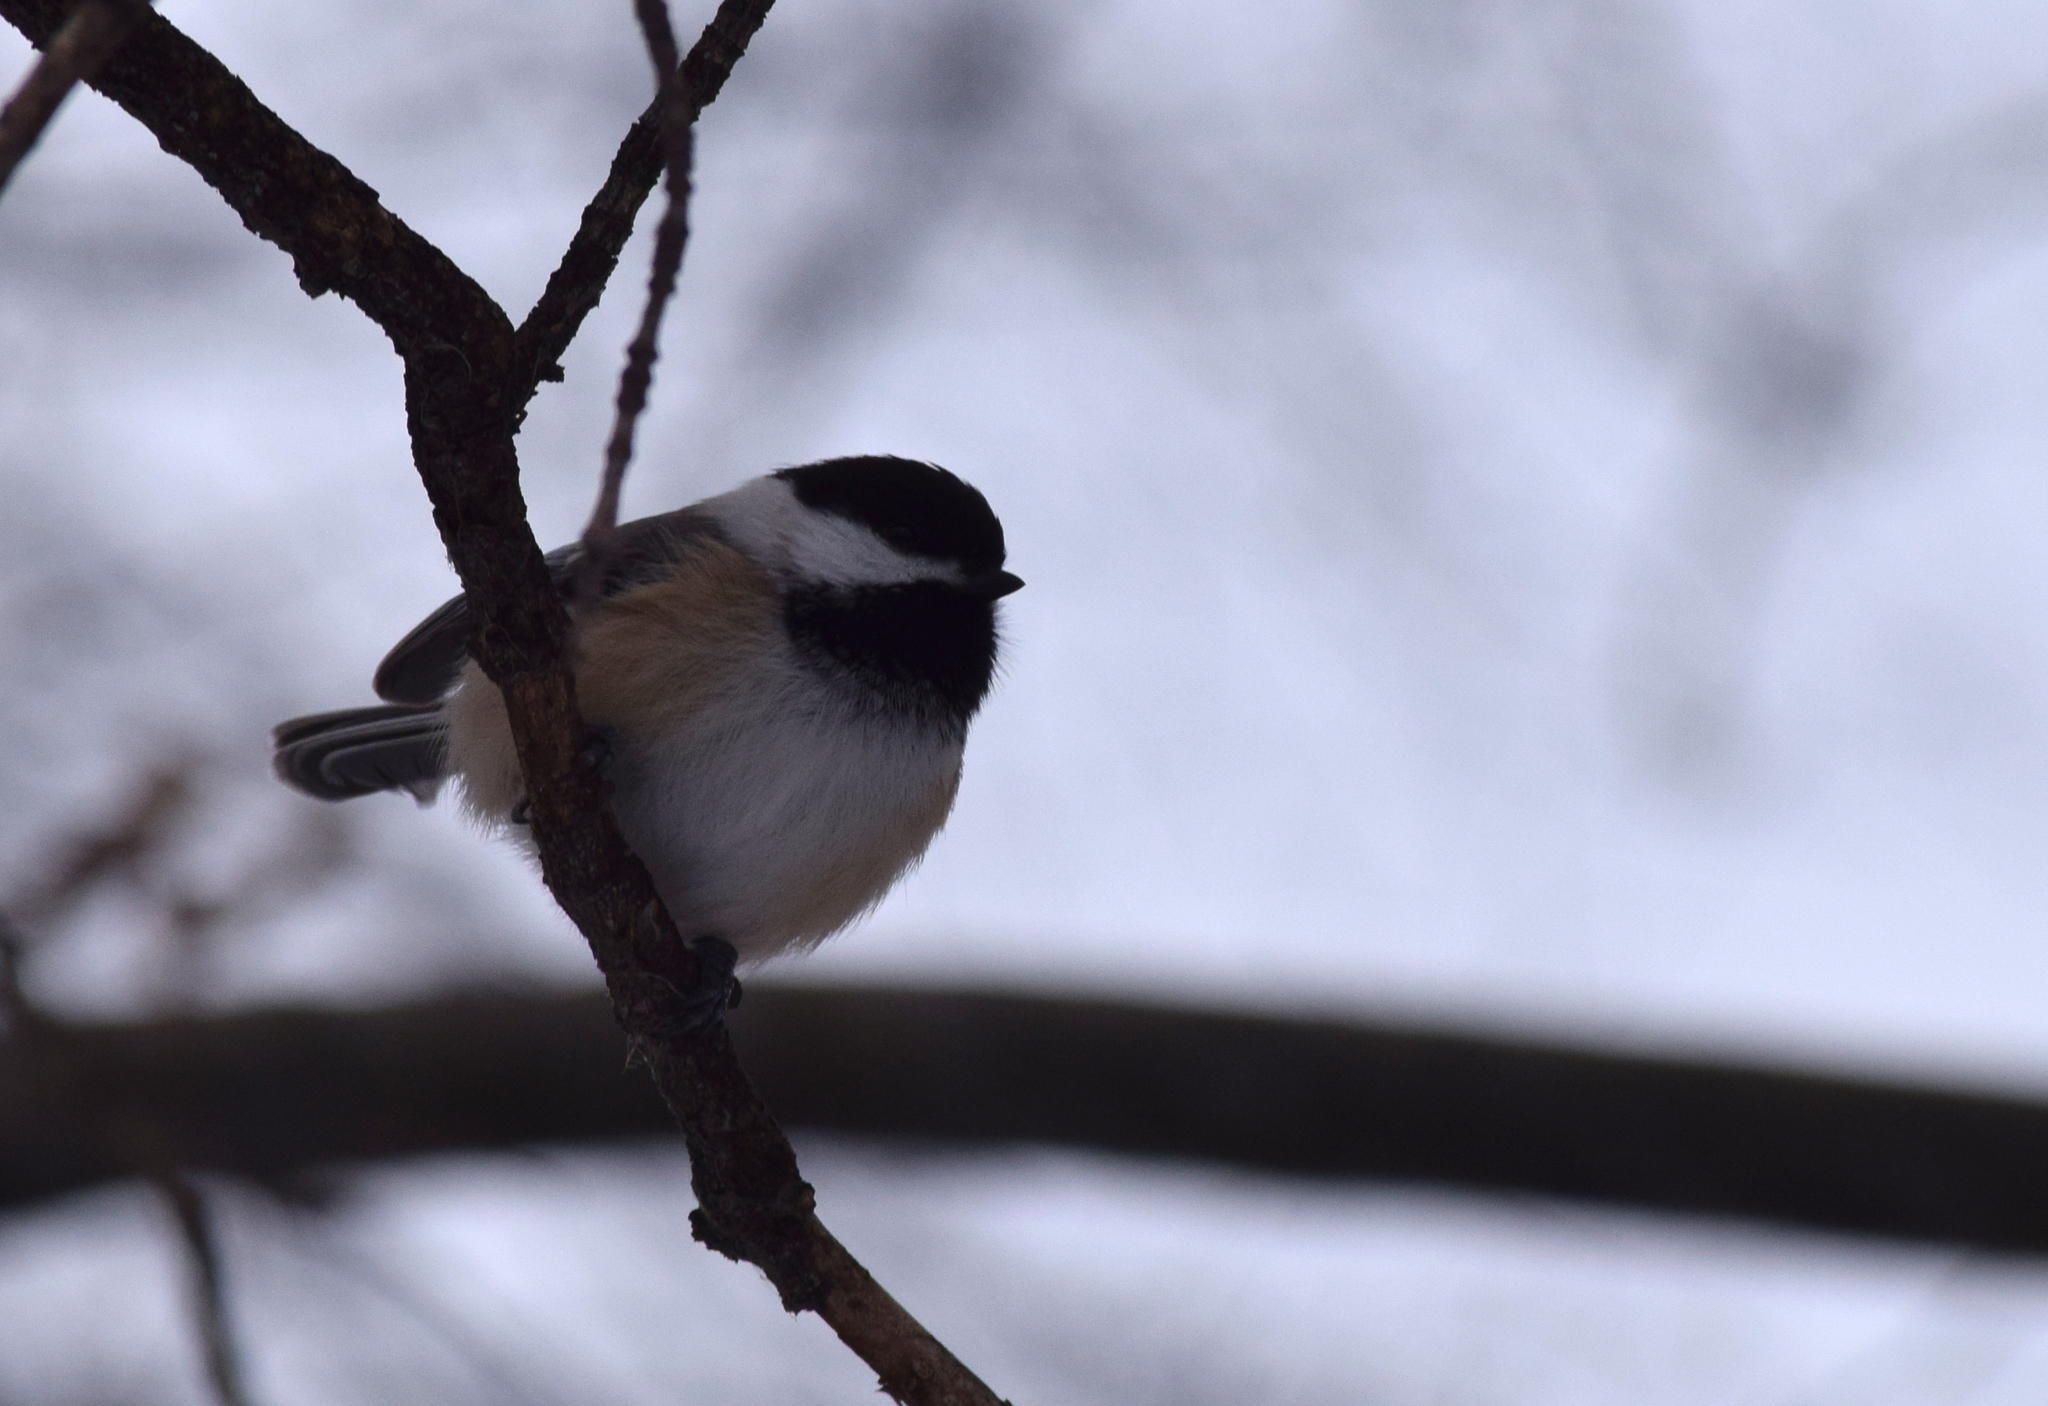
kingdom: Animalia
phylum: Chordata
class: Aves
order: Passeriformes
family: Paridae
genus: Poecile
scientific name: Poecile atricapillus
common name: Black-capped chickadee
